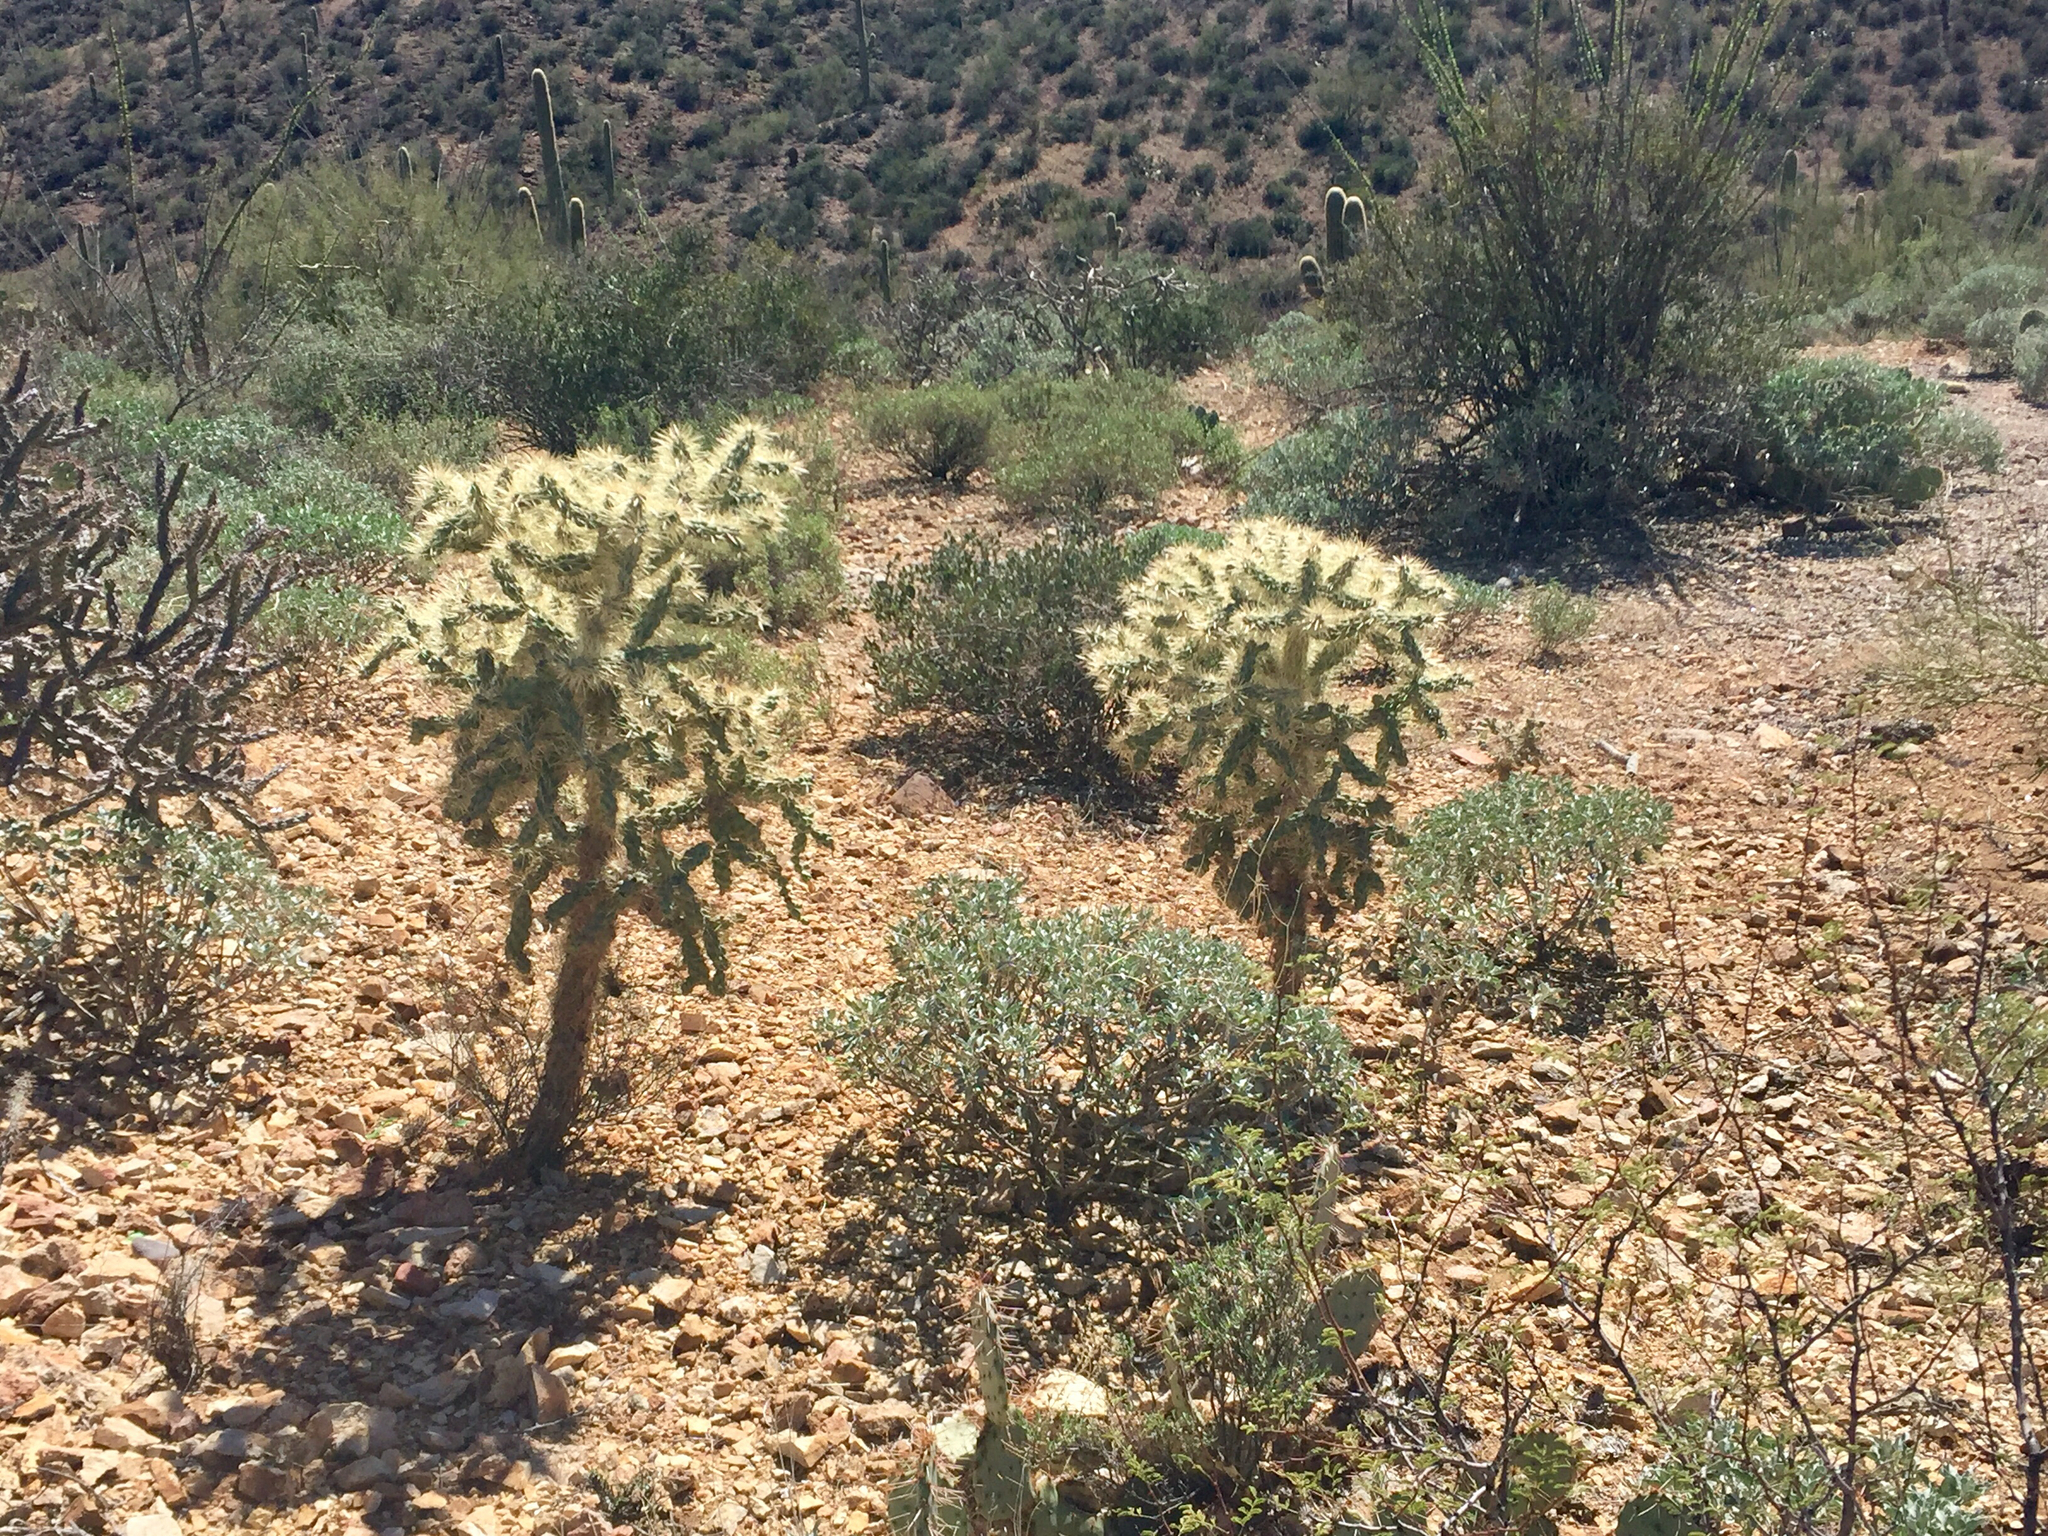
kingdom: Plantae
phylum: Tracheophyta
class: Magnoliopsida
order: Caryophyllales
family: Cactaceae
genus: Cylindropuntia
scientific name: Cylindropuntia fulgida
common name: Jumping cholla
